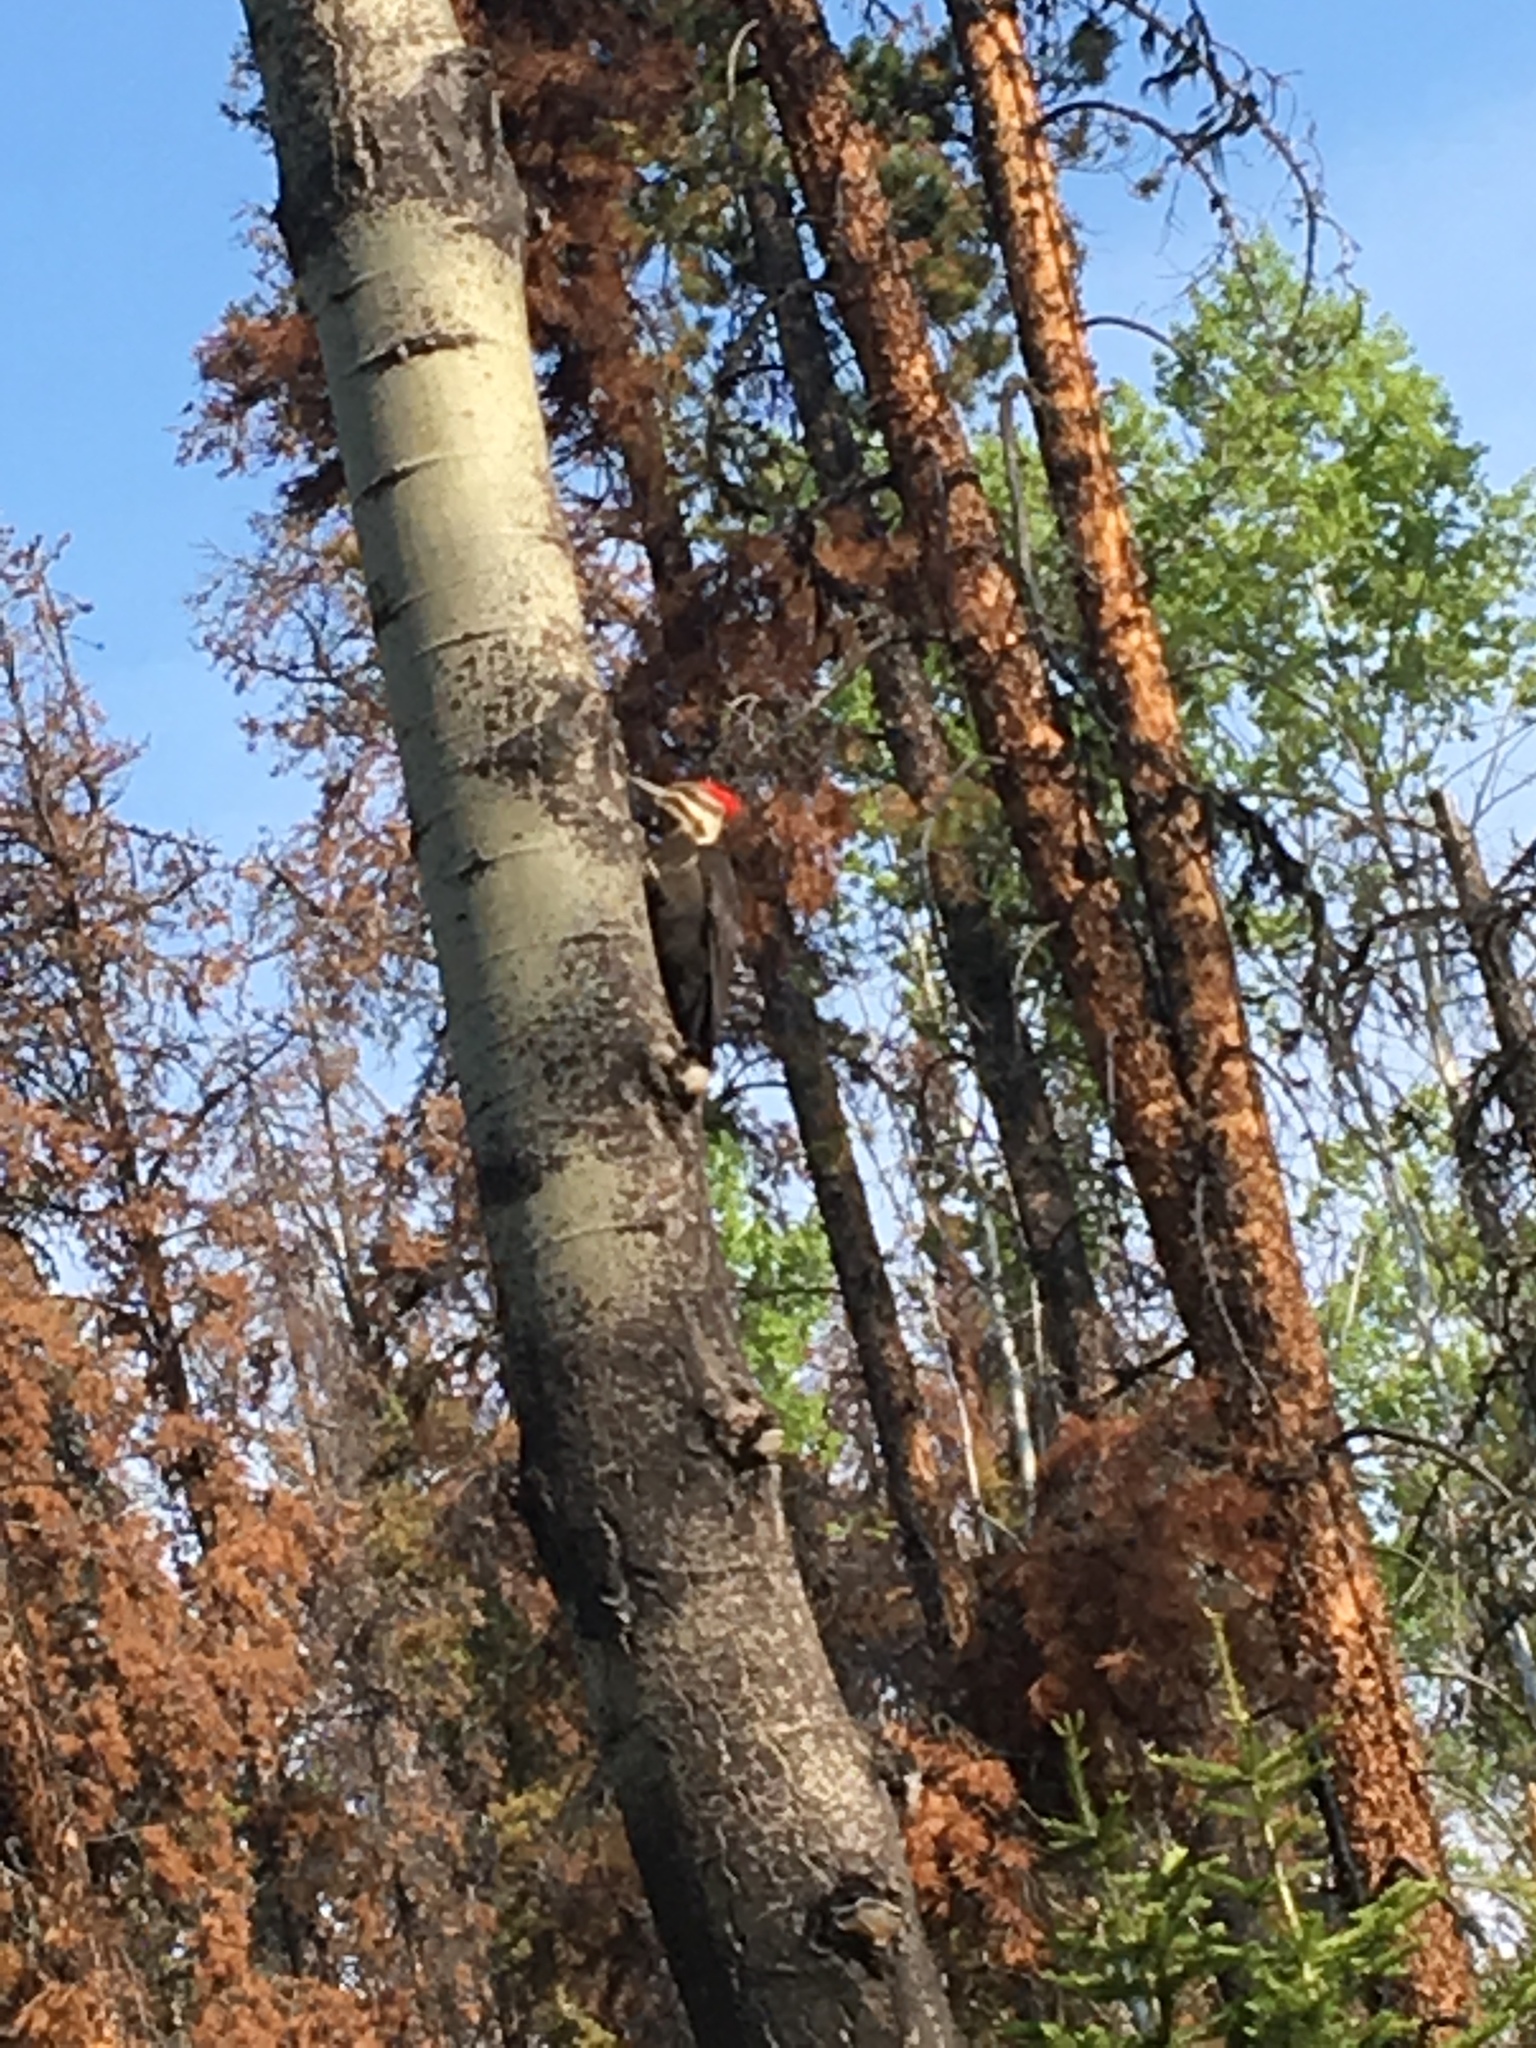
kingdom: Animalia
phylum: Chordata
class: Aves
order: Piciformes
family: Picidae
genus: Dryocopus
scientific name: Dryocopus pileatus
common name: Pileated woodpecker
